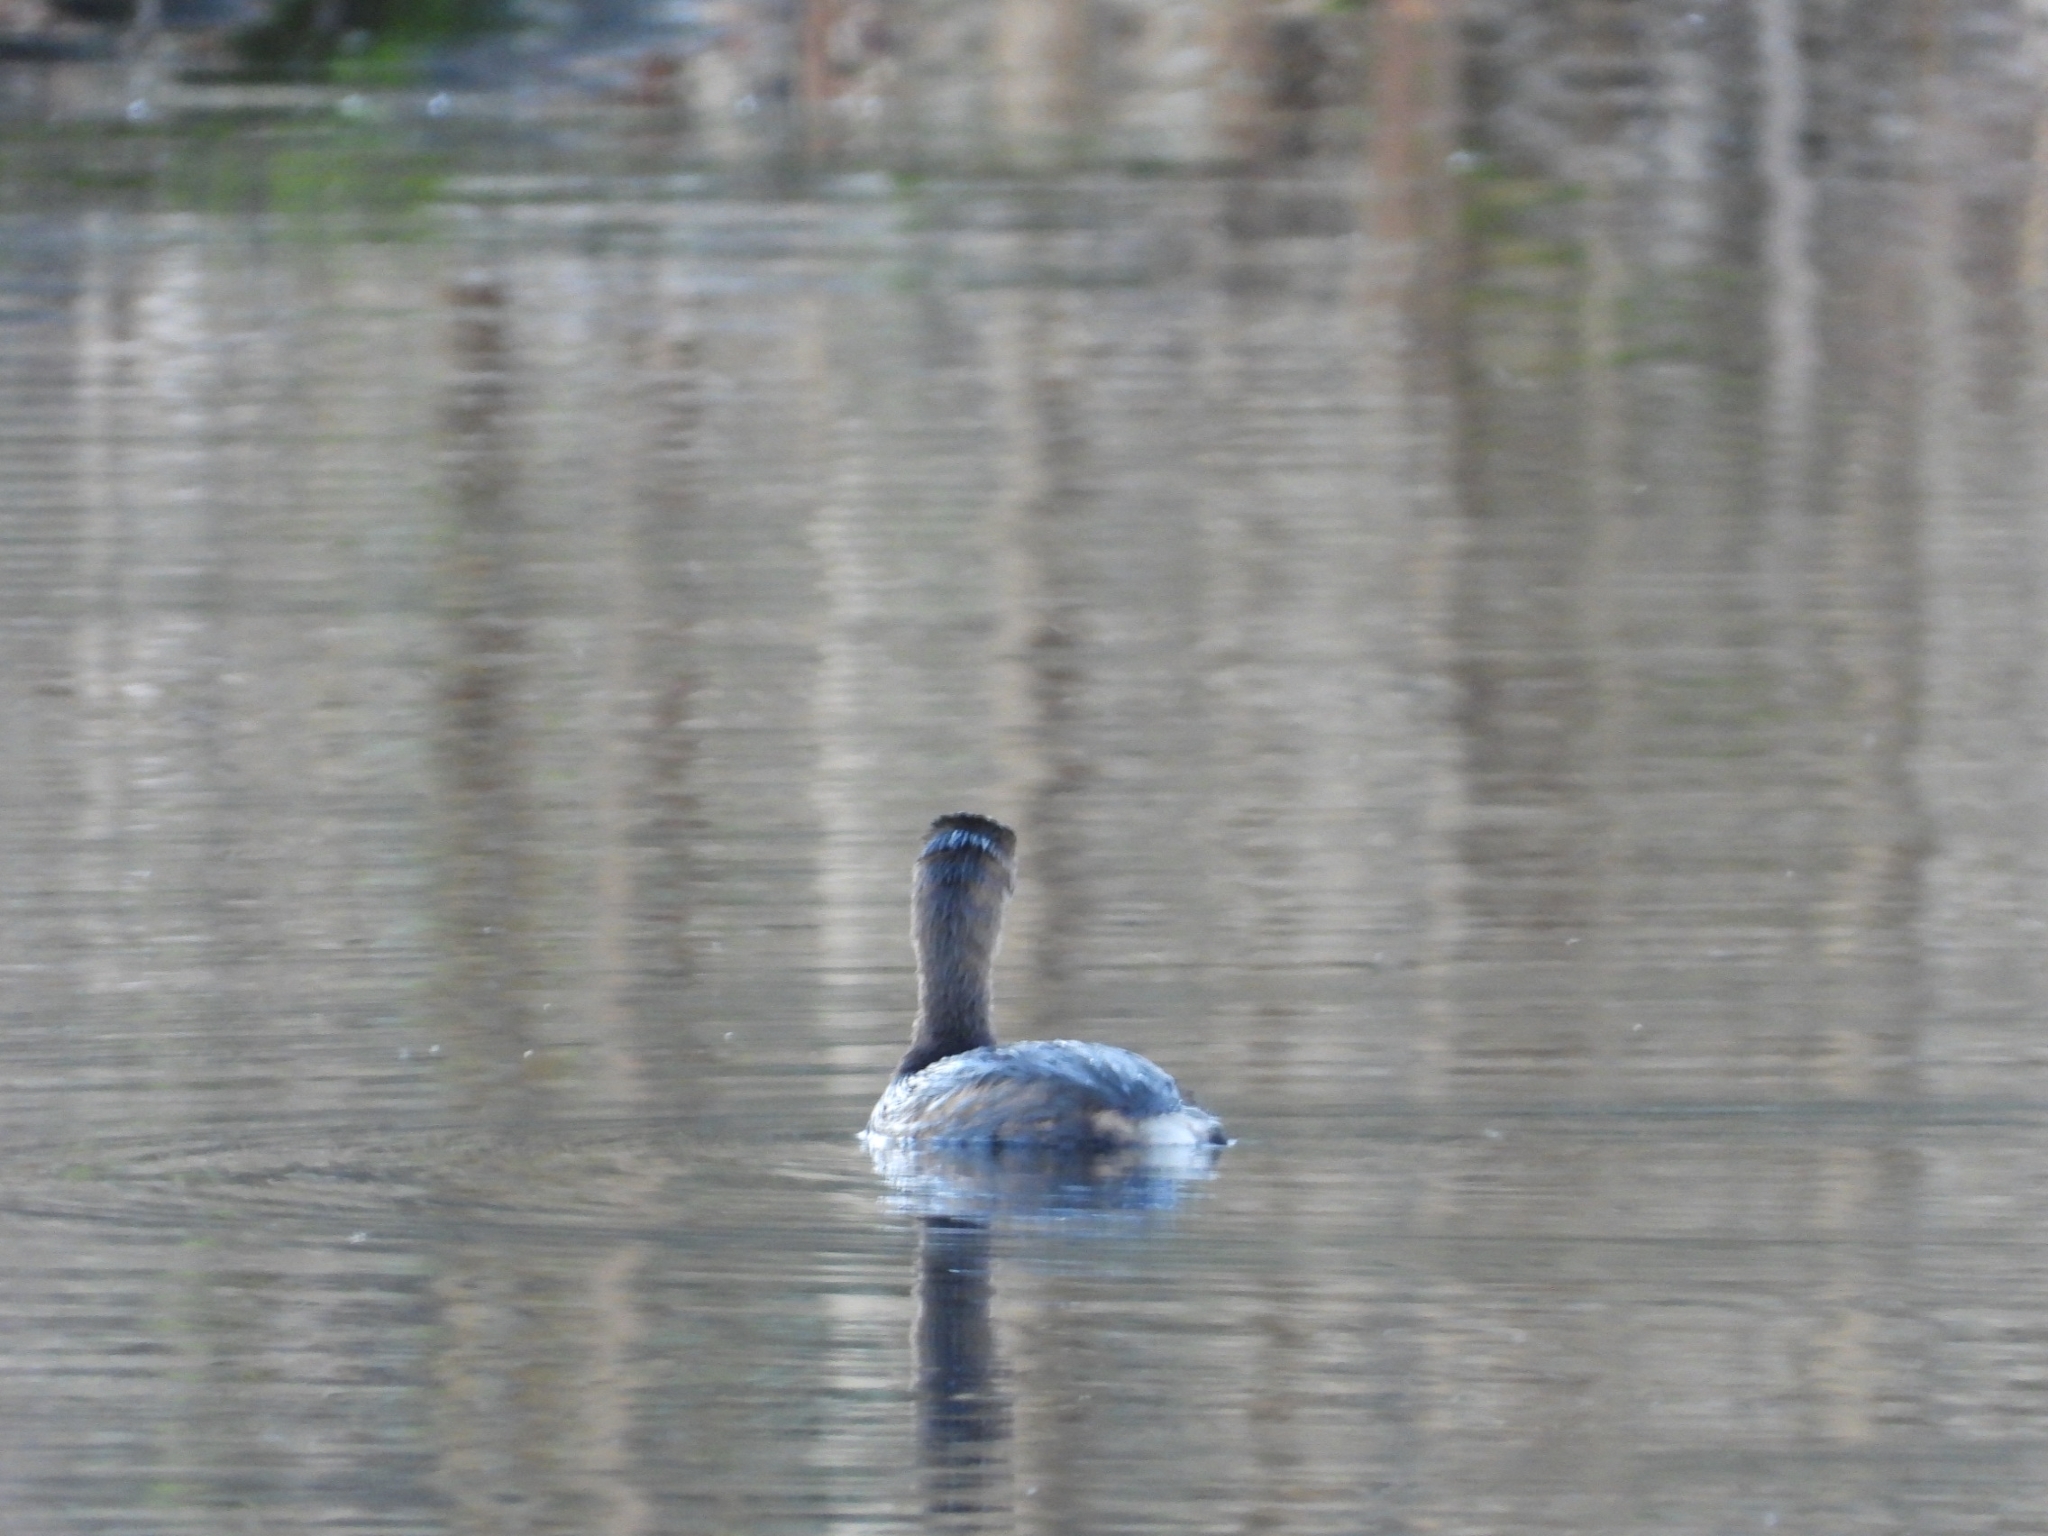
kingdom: Animalia
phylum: Chordata
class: Aves
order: Gruiformes
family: Rallidae
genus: Fulica
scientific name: Fulica americana
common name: American coot
